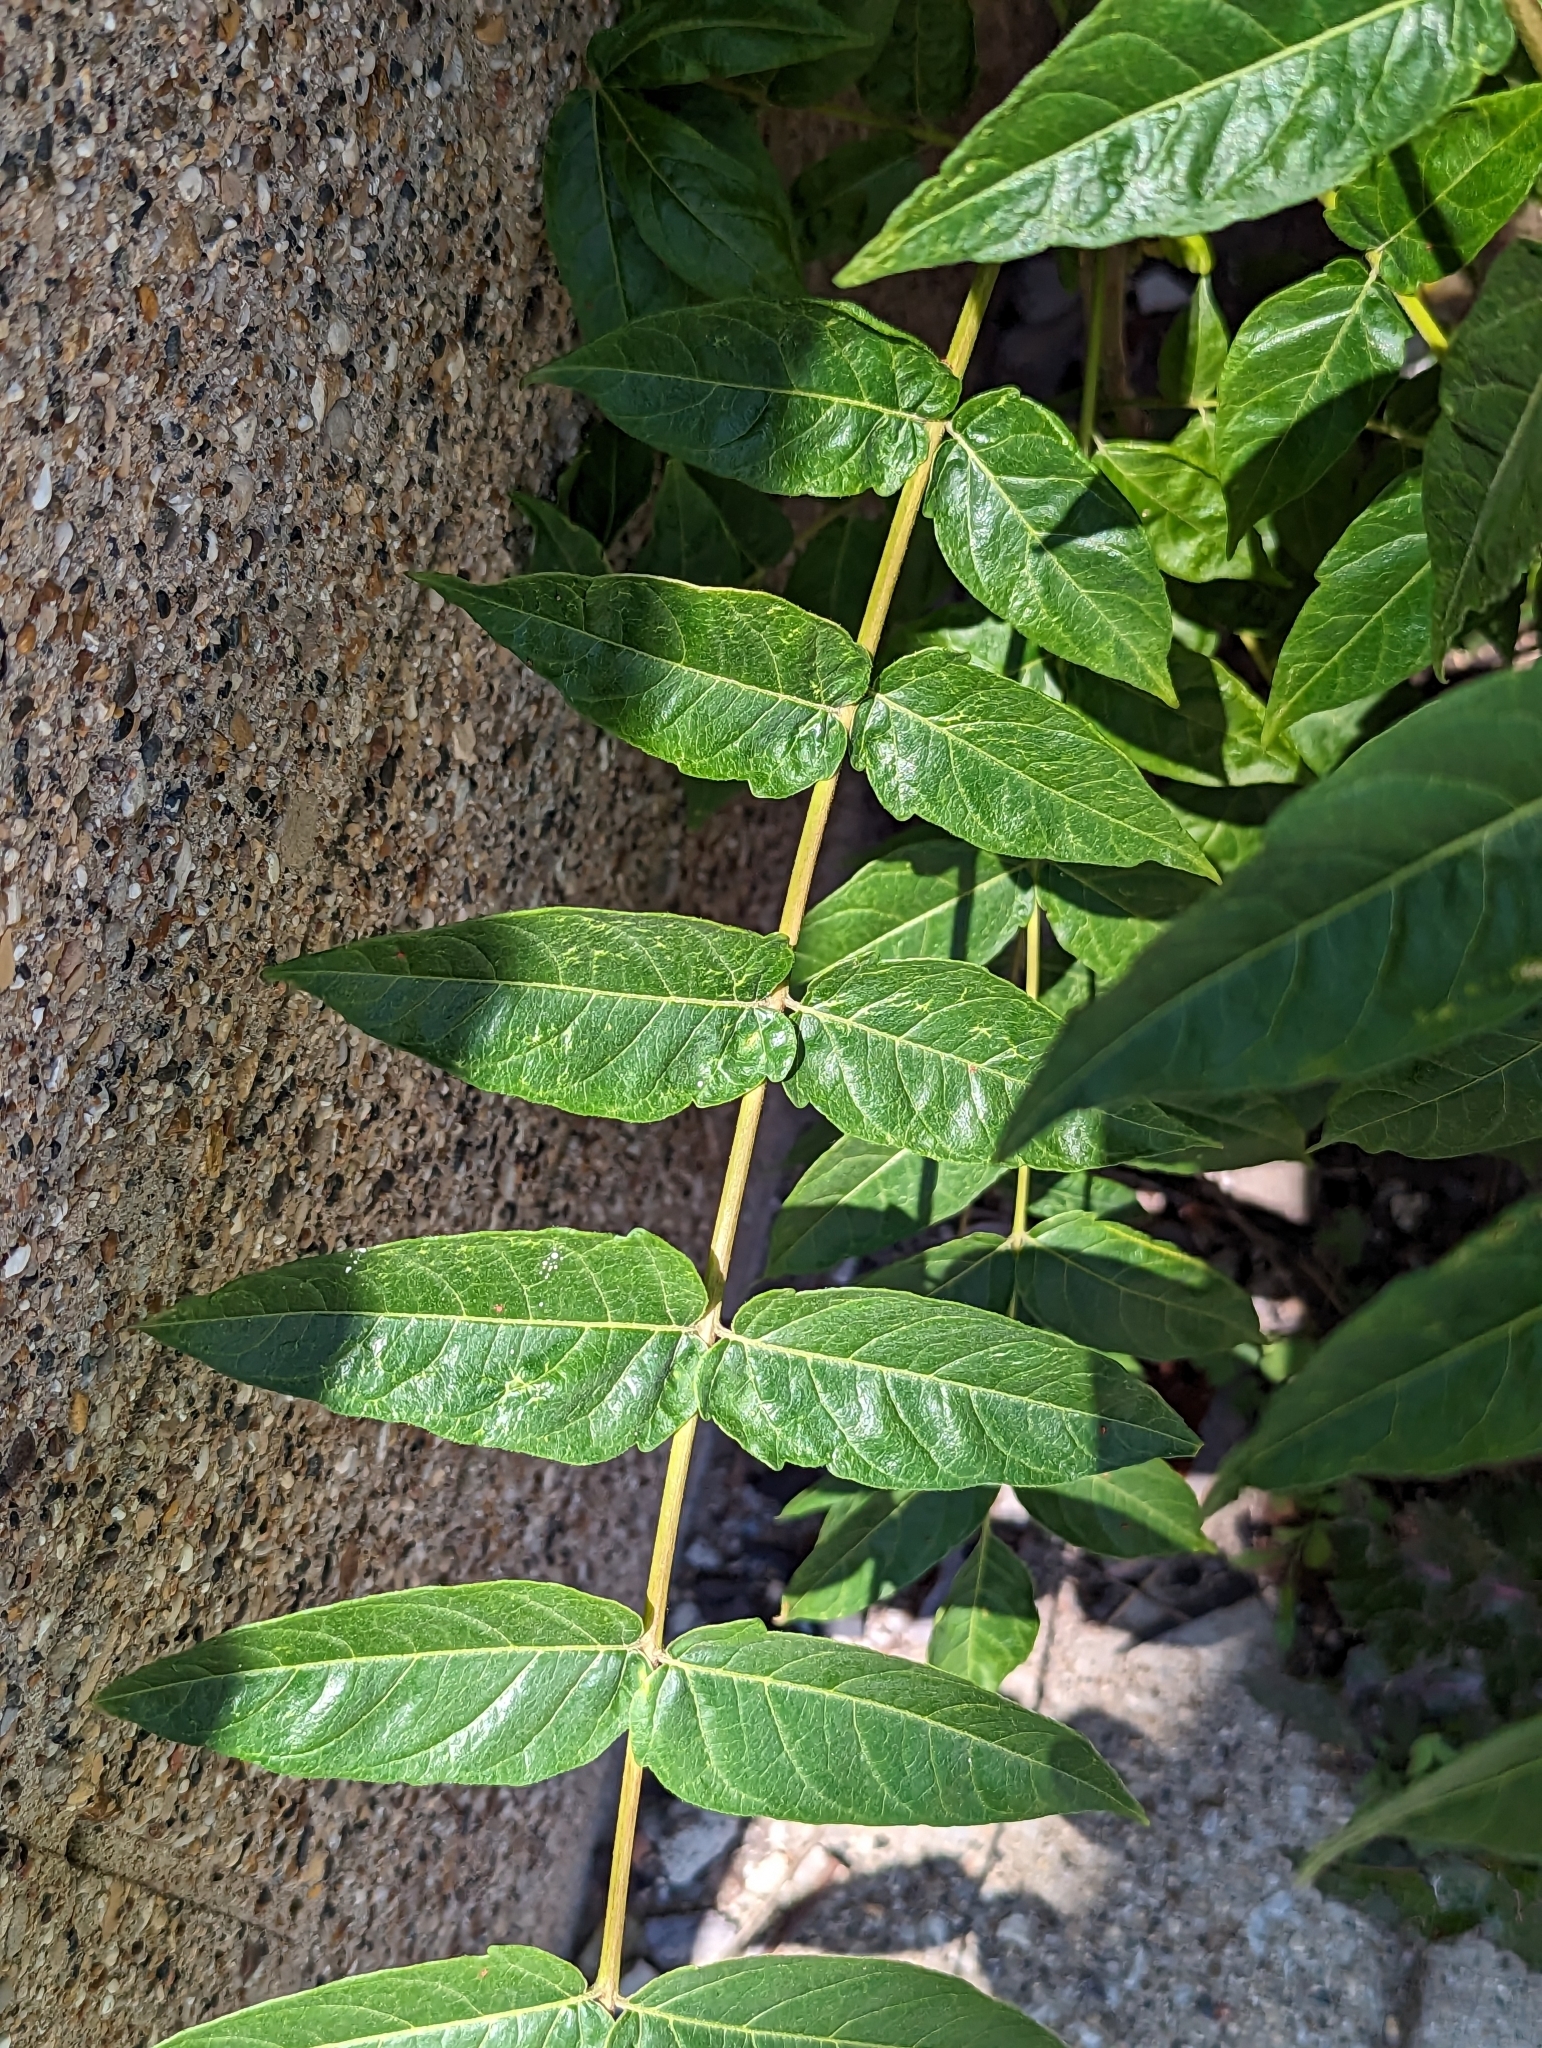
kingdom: Plantae
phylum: Tracheophyta
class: Magnoliopsida
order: Sapindales
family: Simaroubaceae
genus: Ailanthus
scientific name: Ailanthus altissima
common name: Tree-of-heaven
